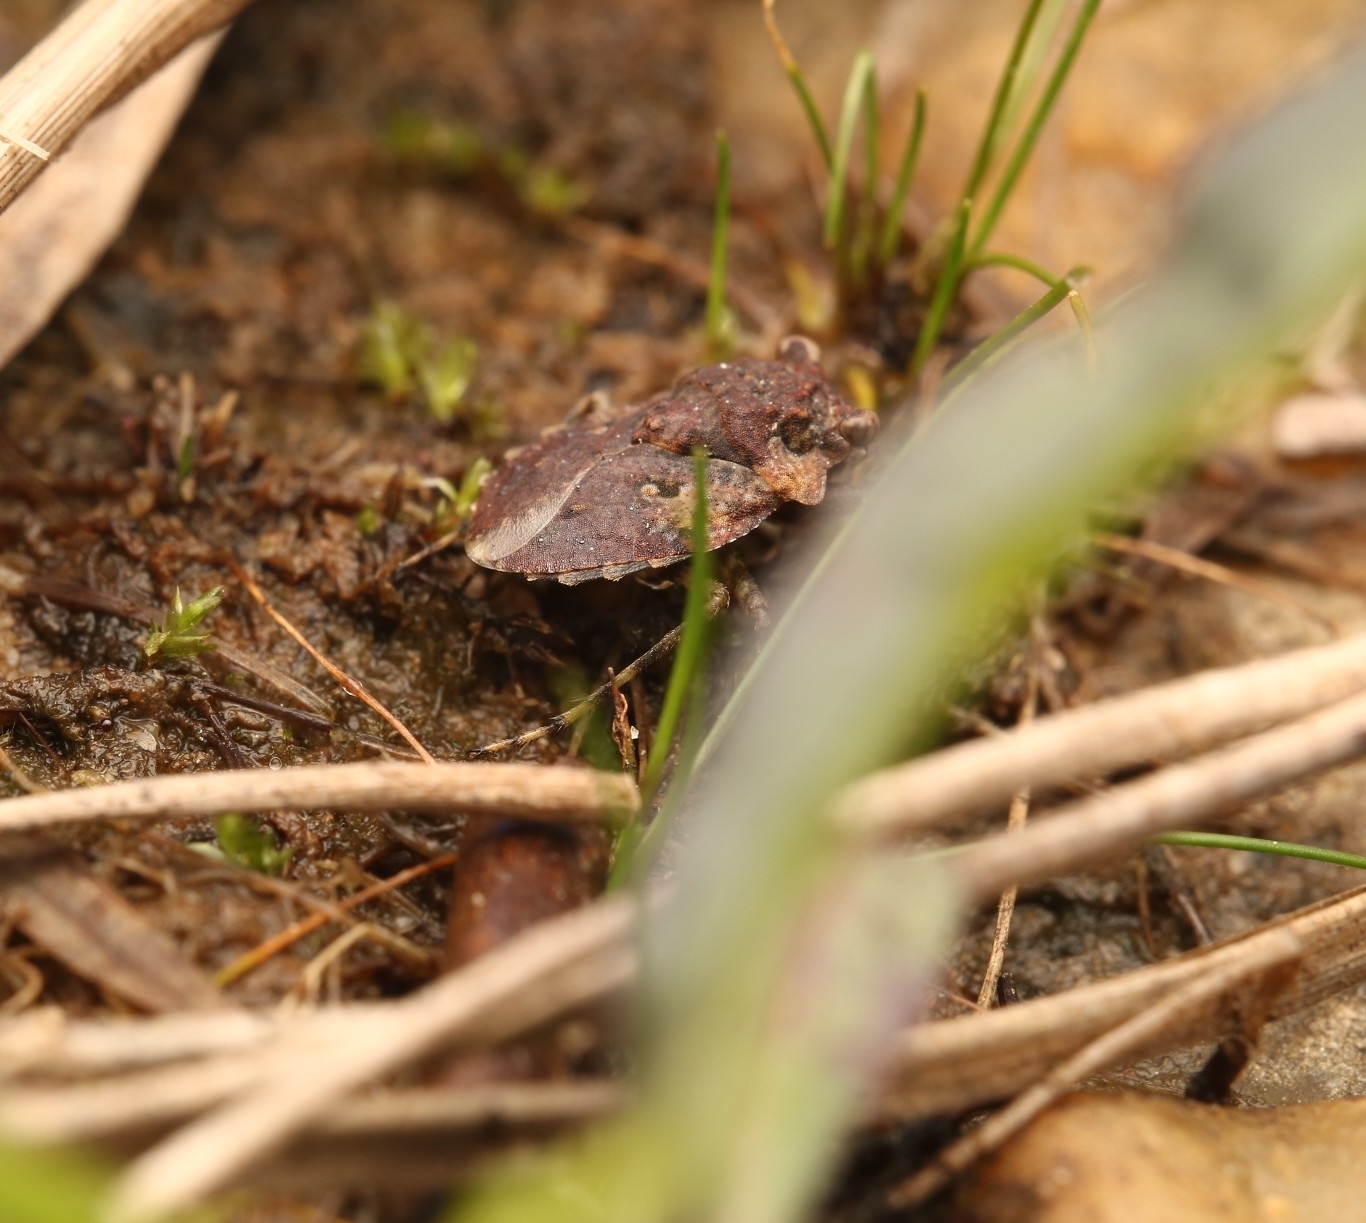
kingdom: Animalia
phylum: Arthropoda
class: Insecta
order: Hemiptera
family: Gelastocoridae
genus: Gelastocoris
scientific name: Gelastocoris oculatus
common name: Toad bug
